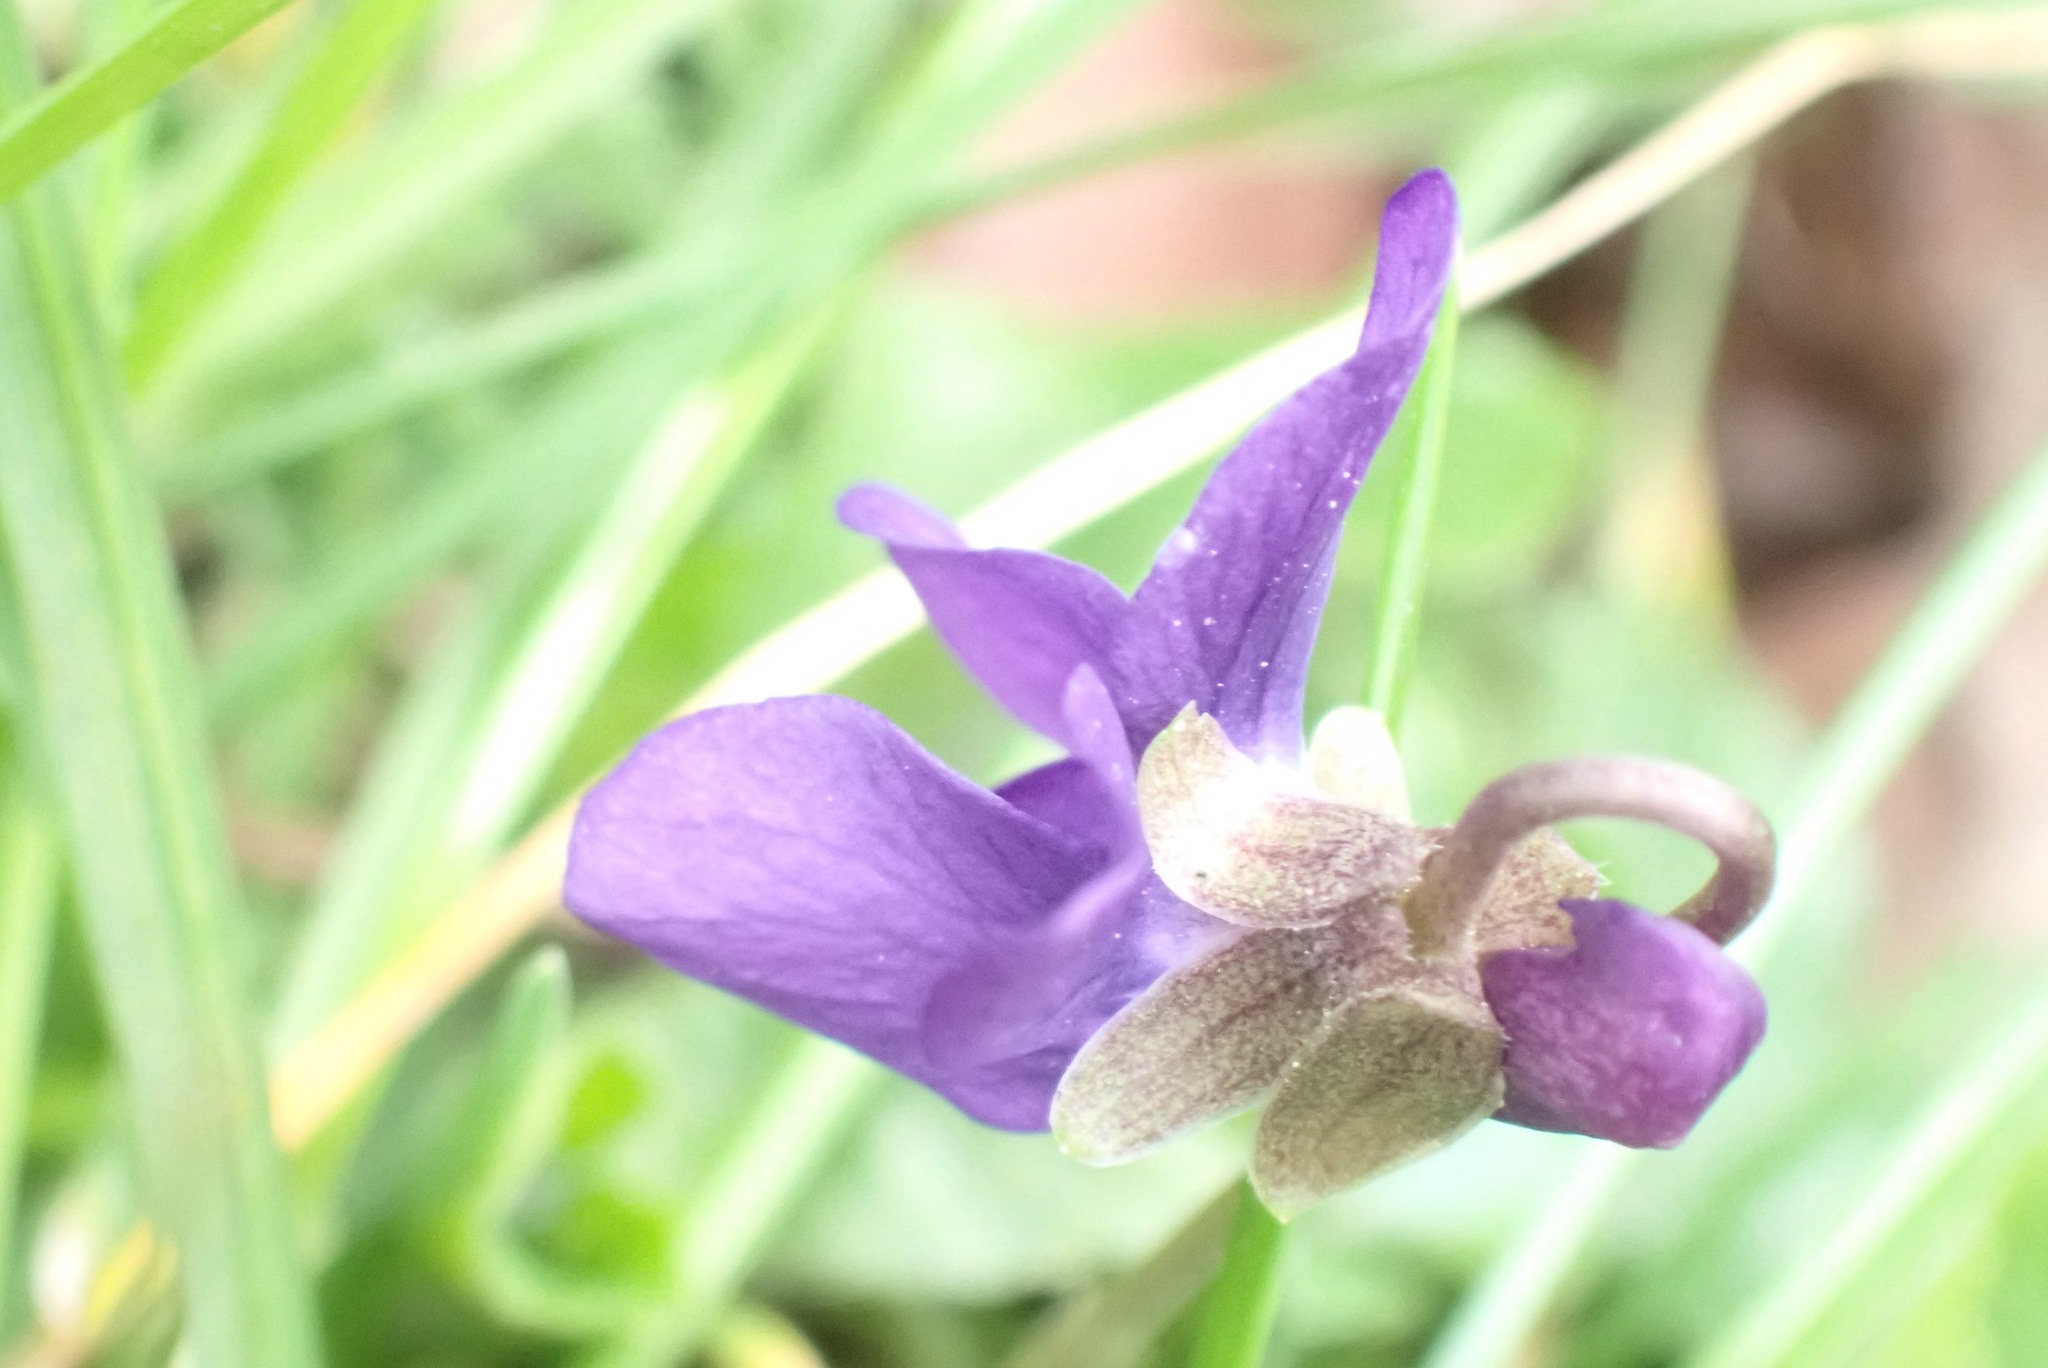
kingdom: Plantae
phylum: Tracheophyta
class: Magnoliopsida
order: Malpighiales
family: Violaceae
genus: Viola
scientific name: Viola odorata
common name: Sweet violet
